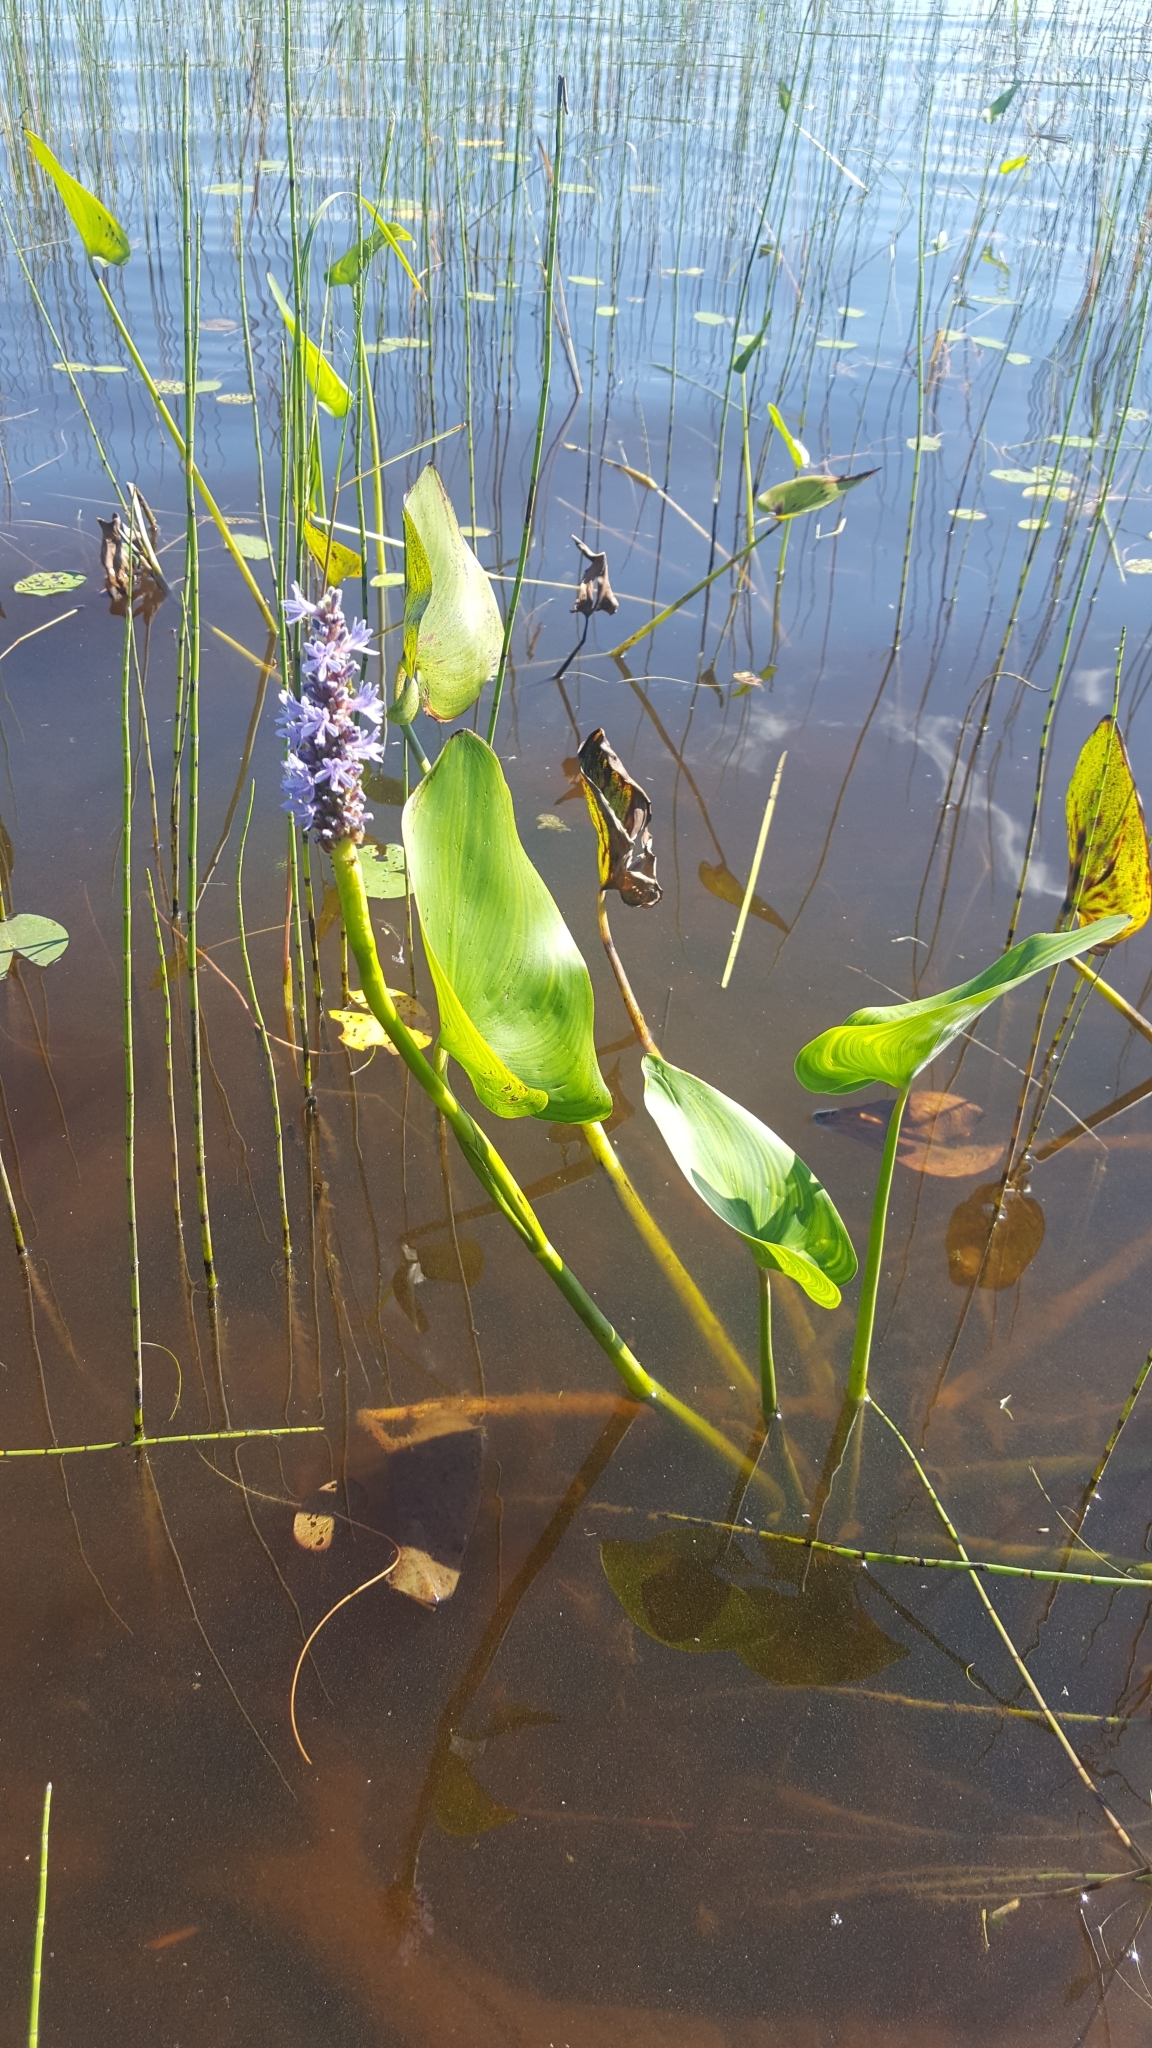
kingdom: Plantae
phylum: Tracheophyta
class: Liliopsida
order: Commelinales
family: Pontederiaceae
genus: Pontederia
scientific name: Pontederia cordata
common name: Pickerelweed
